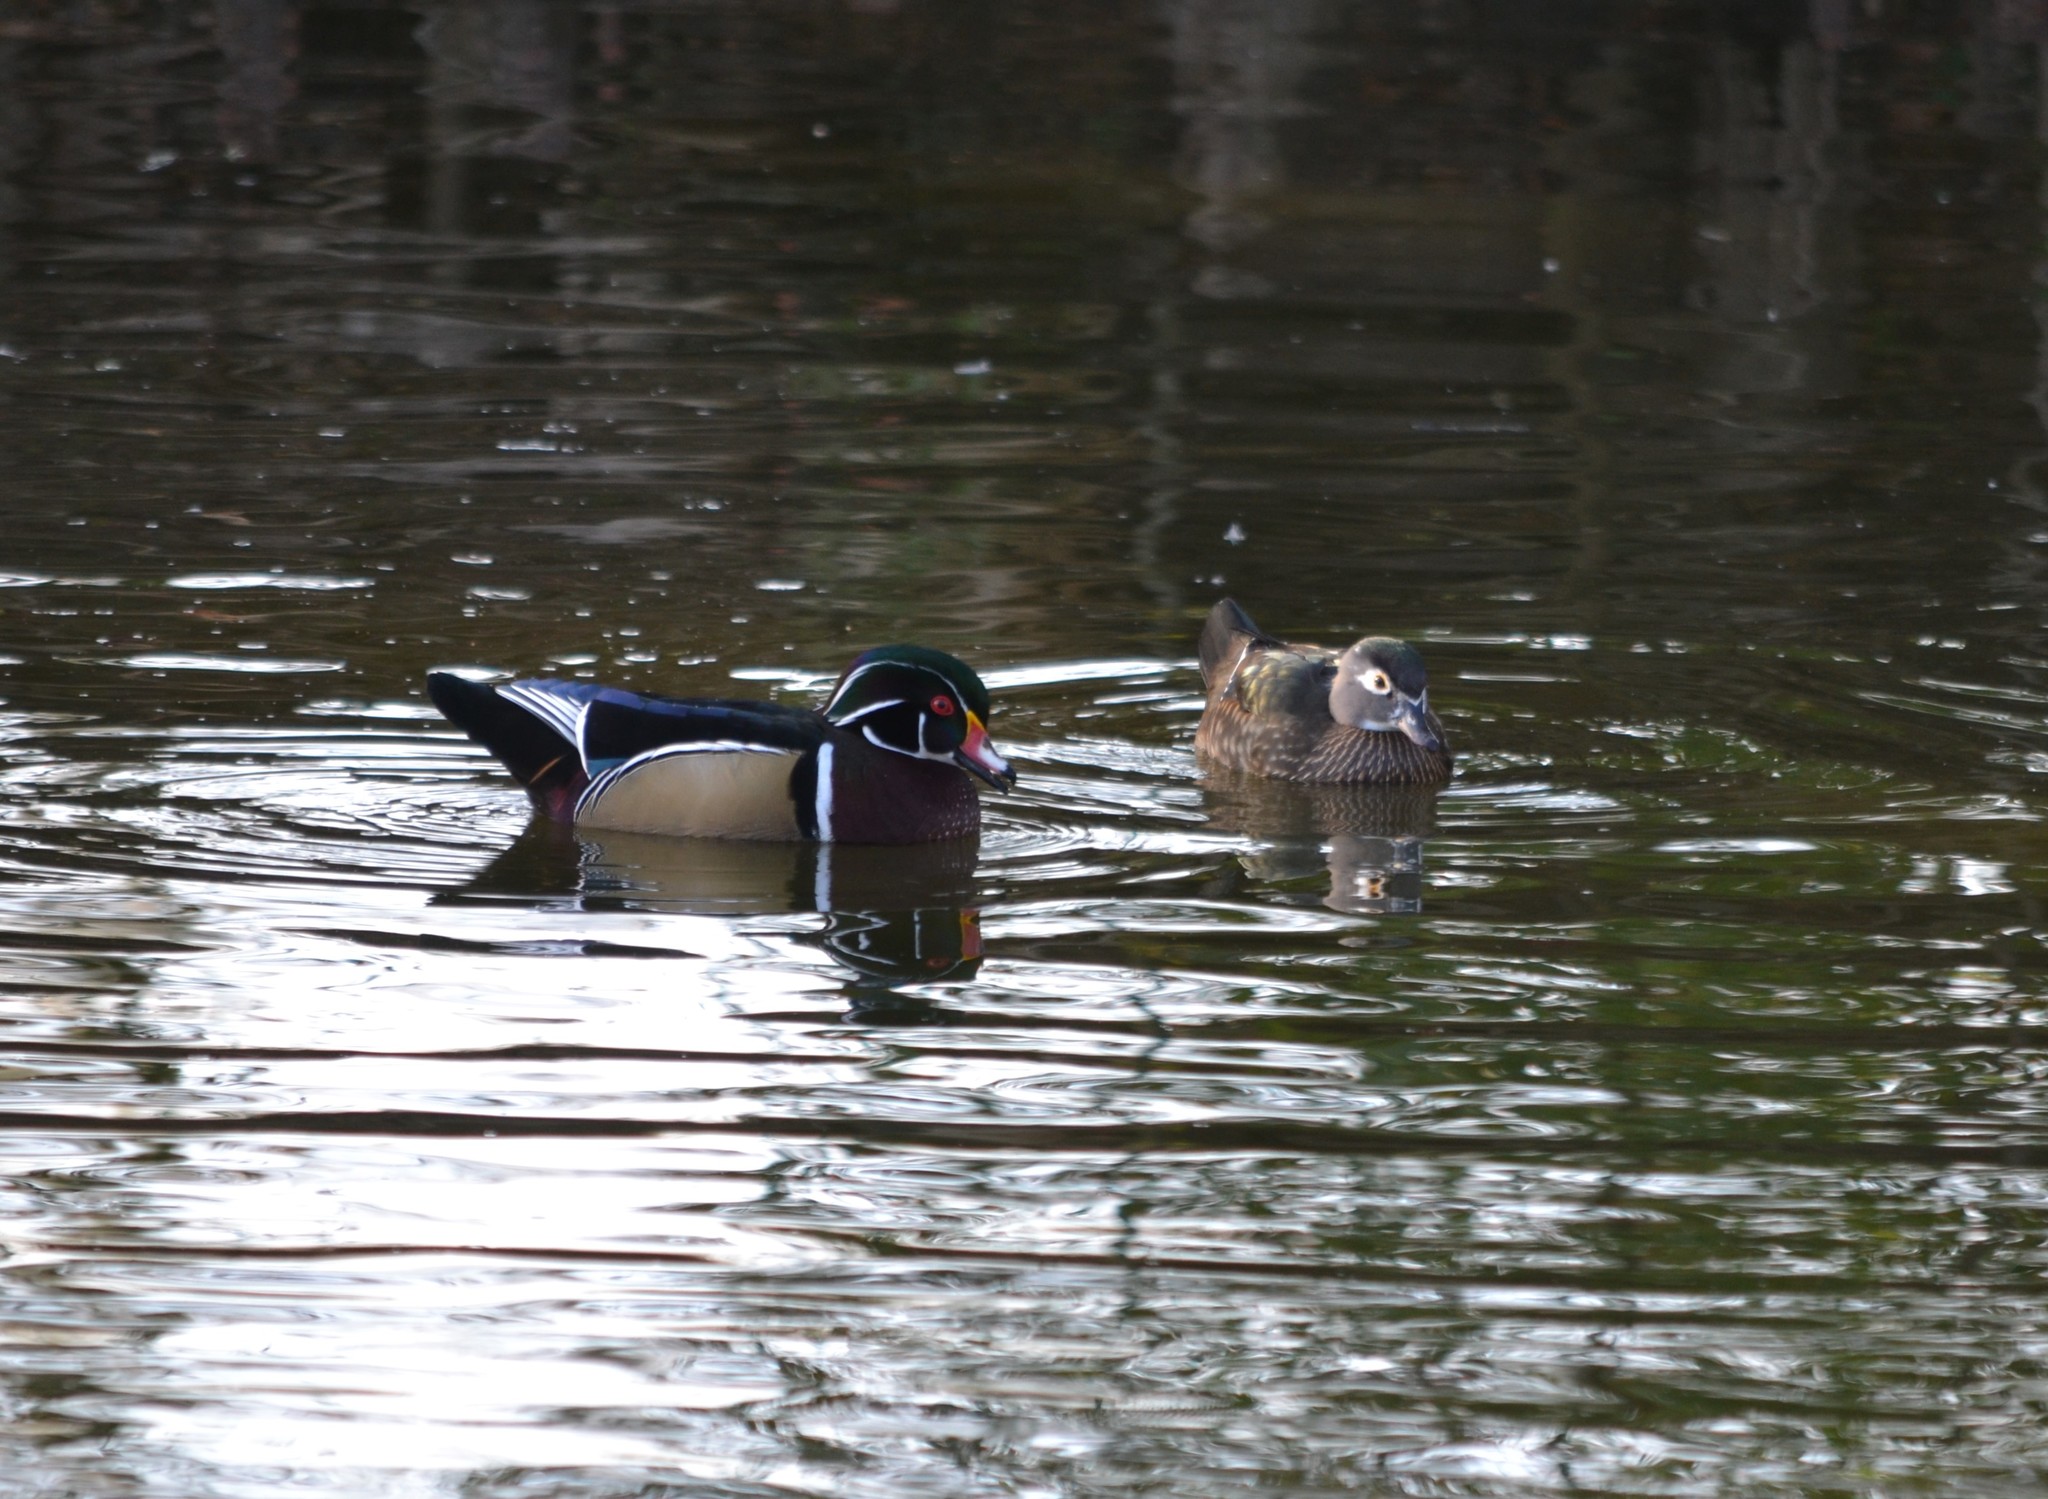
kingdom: Animalia
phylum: Chordata
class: Aves
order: Anseriformes
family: Anatidae
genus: Aix
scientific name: Aix sponsa
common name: Wood duck
